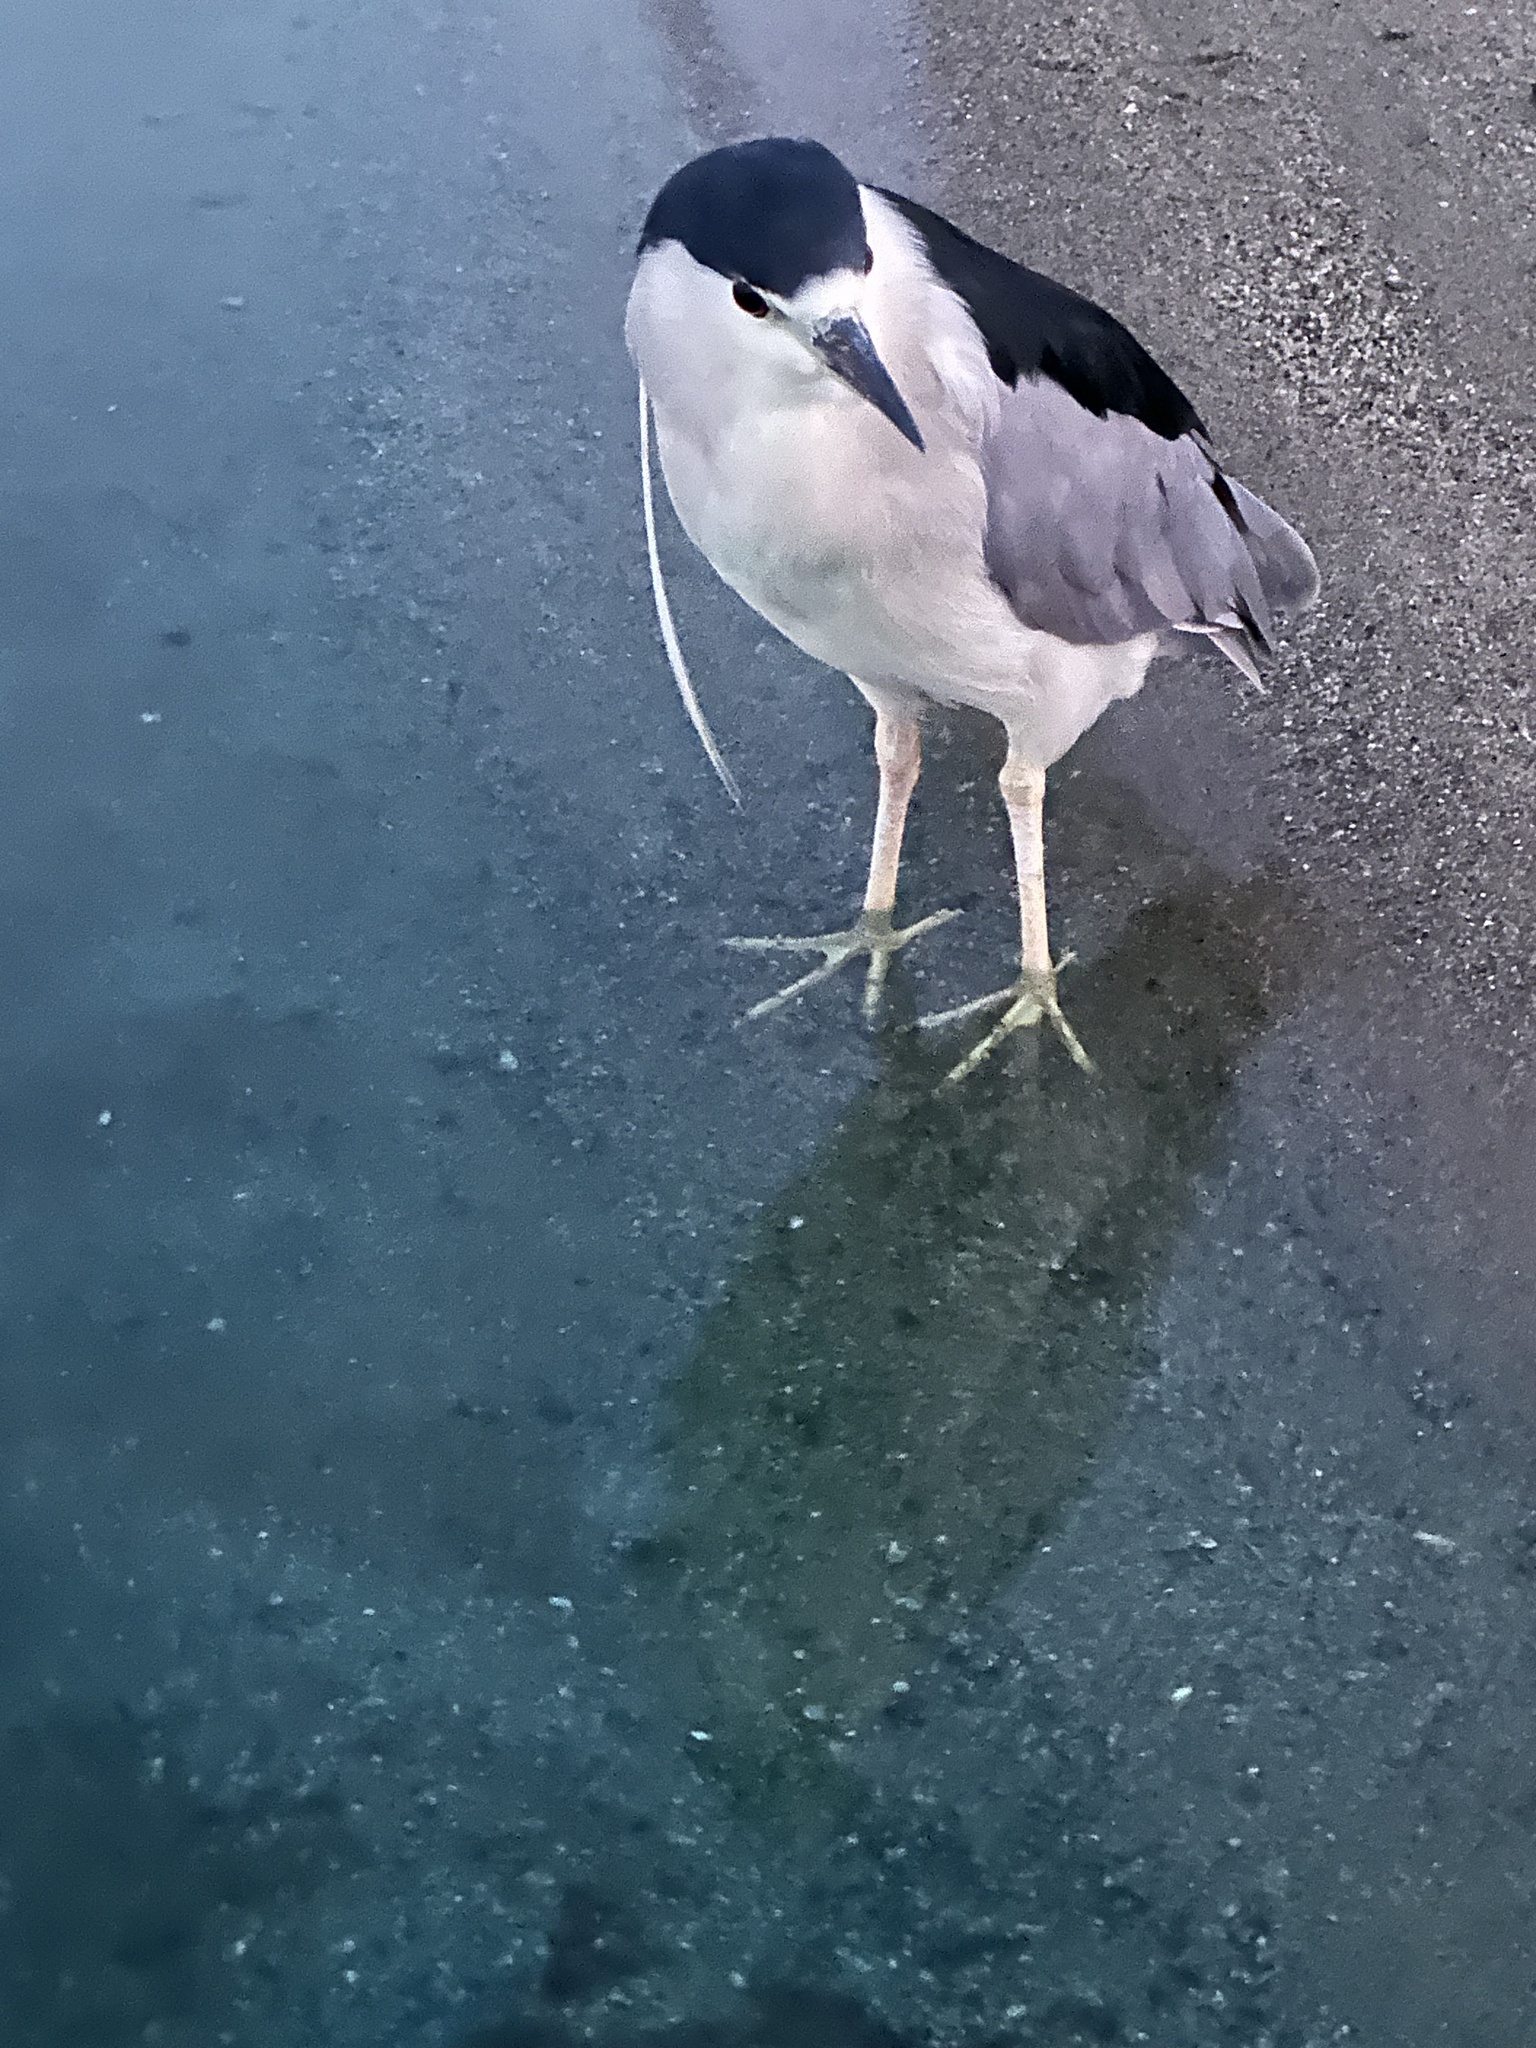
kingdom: Animalia
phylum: Chordata
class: Aves
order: Pelecaniformes
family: Ardeidae
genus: Nycticorax
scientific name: Nycticorax nycticorax
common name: Black-crowned night heron
